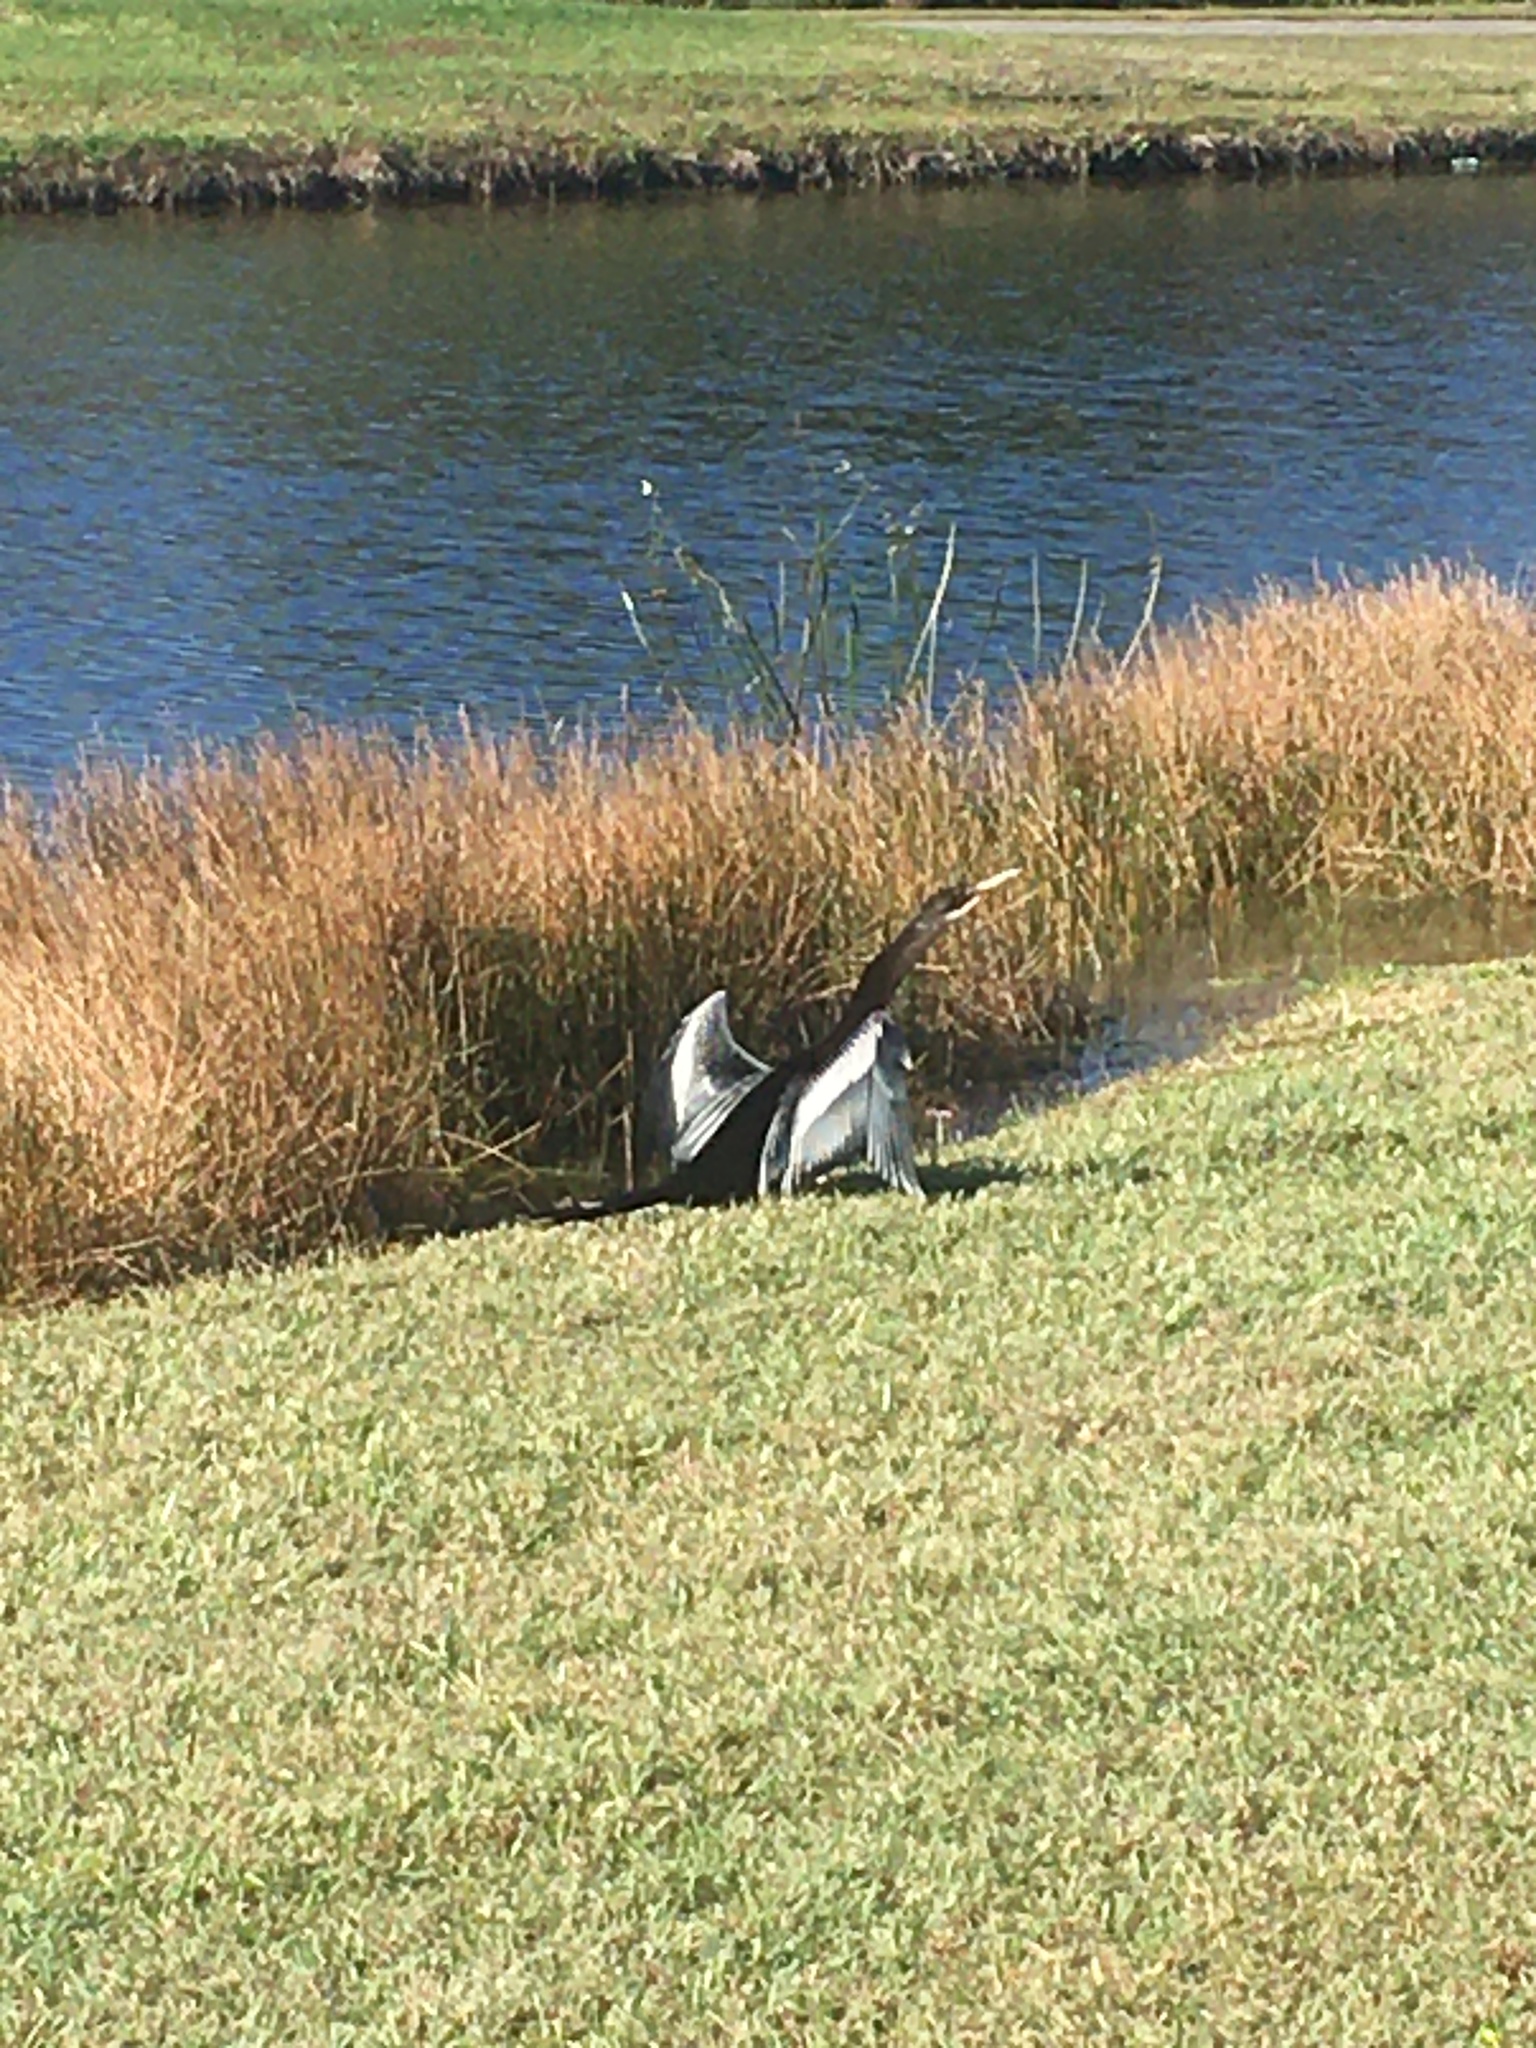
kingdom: Animalia
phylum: Chordata
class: Aves
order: Suliformes
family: Anhingidae
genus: Anhinga
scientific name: Anhinga anhinga
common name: Anhinga
